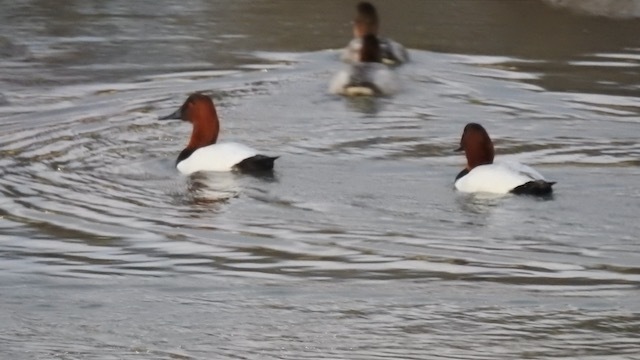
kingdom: Animalia
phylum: Chordata
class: Aves
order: Anseriformes
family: Anatidae
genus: Aythya
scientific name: Aythya valisineria
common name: Canvasback
